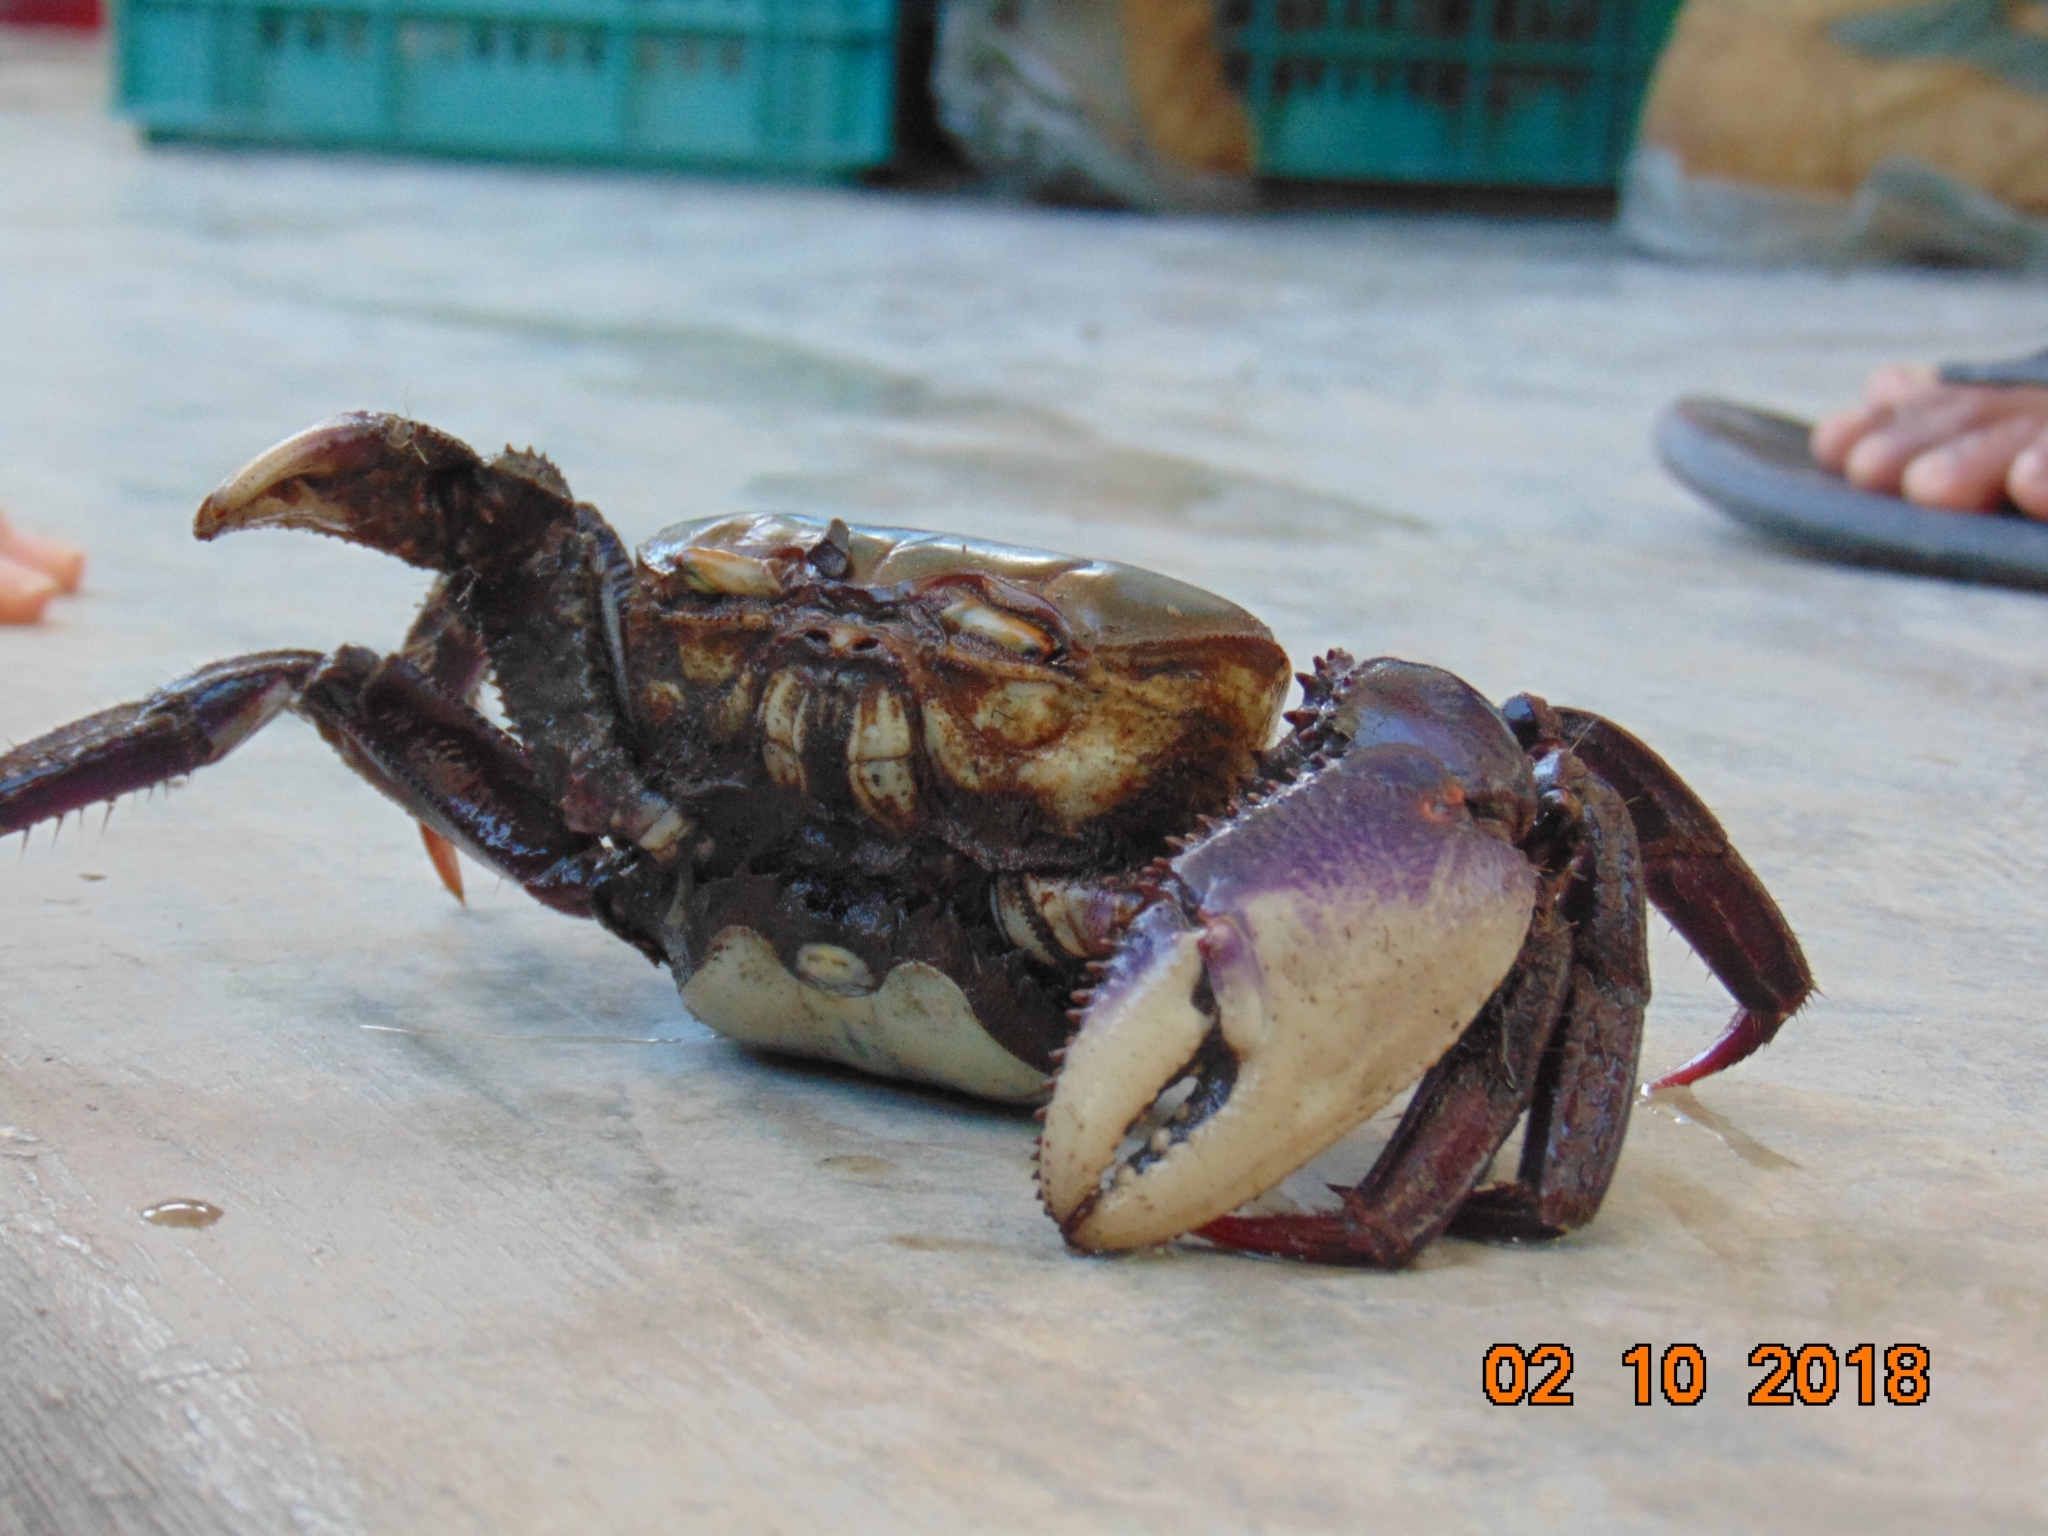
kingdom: Animalia
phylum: Arthropoda
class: Malacostraca
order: Decapoda
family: Ocypodidae
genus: Ucides
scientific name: Ucides cordatus
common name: Swamp ghost crab
